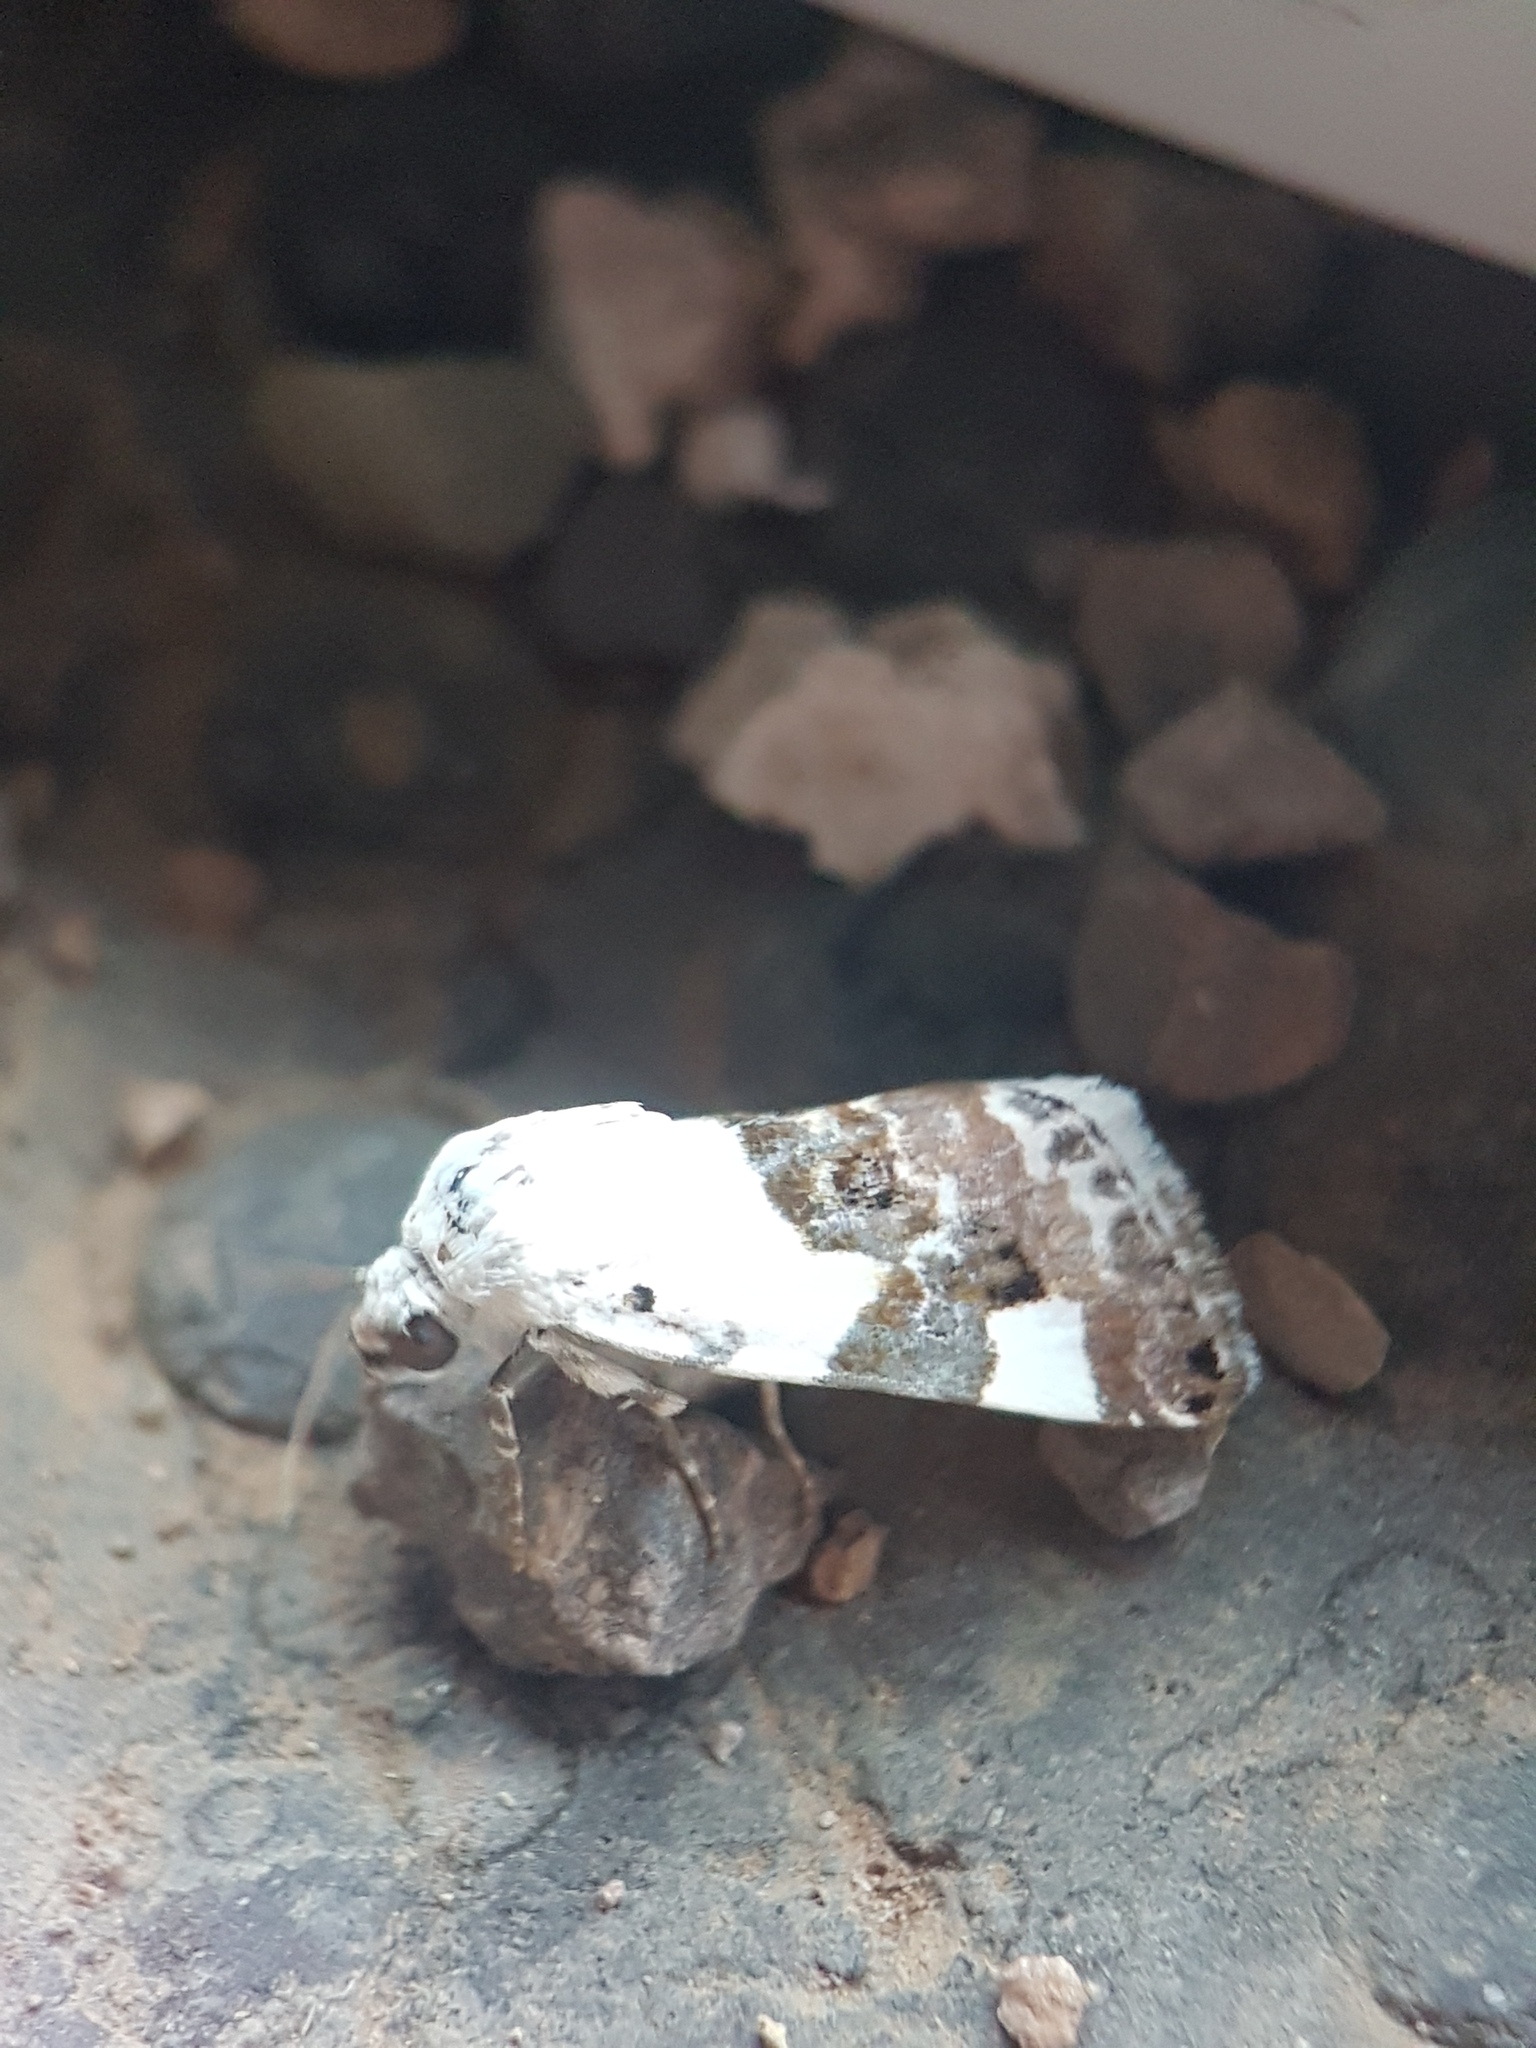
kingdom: Animalia
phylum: Arthropoda
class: Insecta
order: Lepidoptera
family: Noctuidae
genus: Acontia
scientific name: Acontia lucida
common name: Pale shoulder
